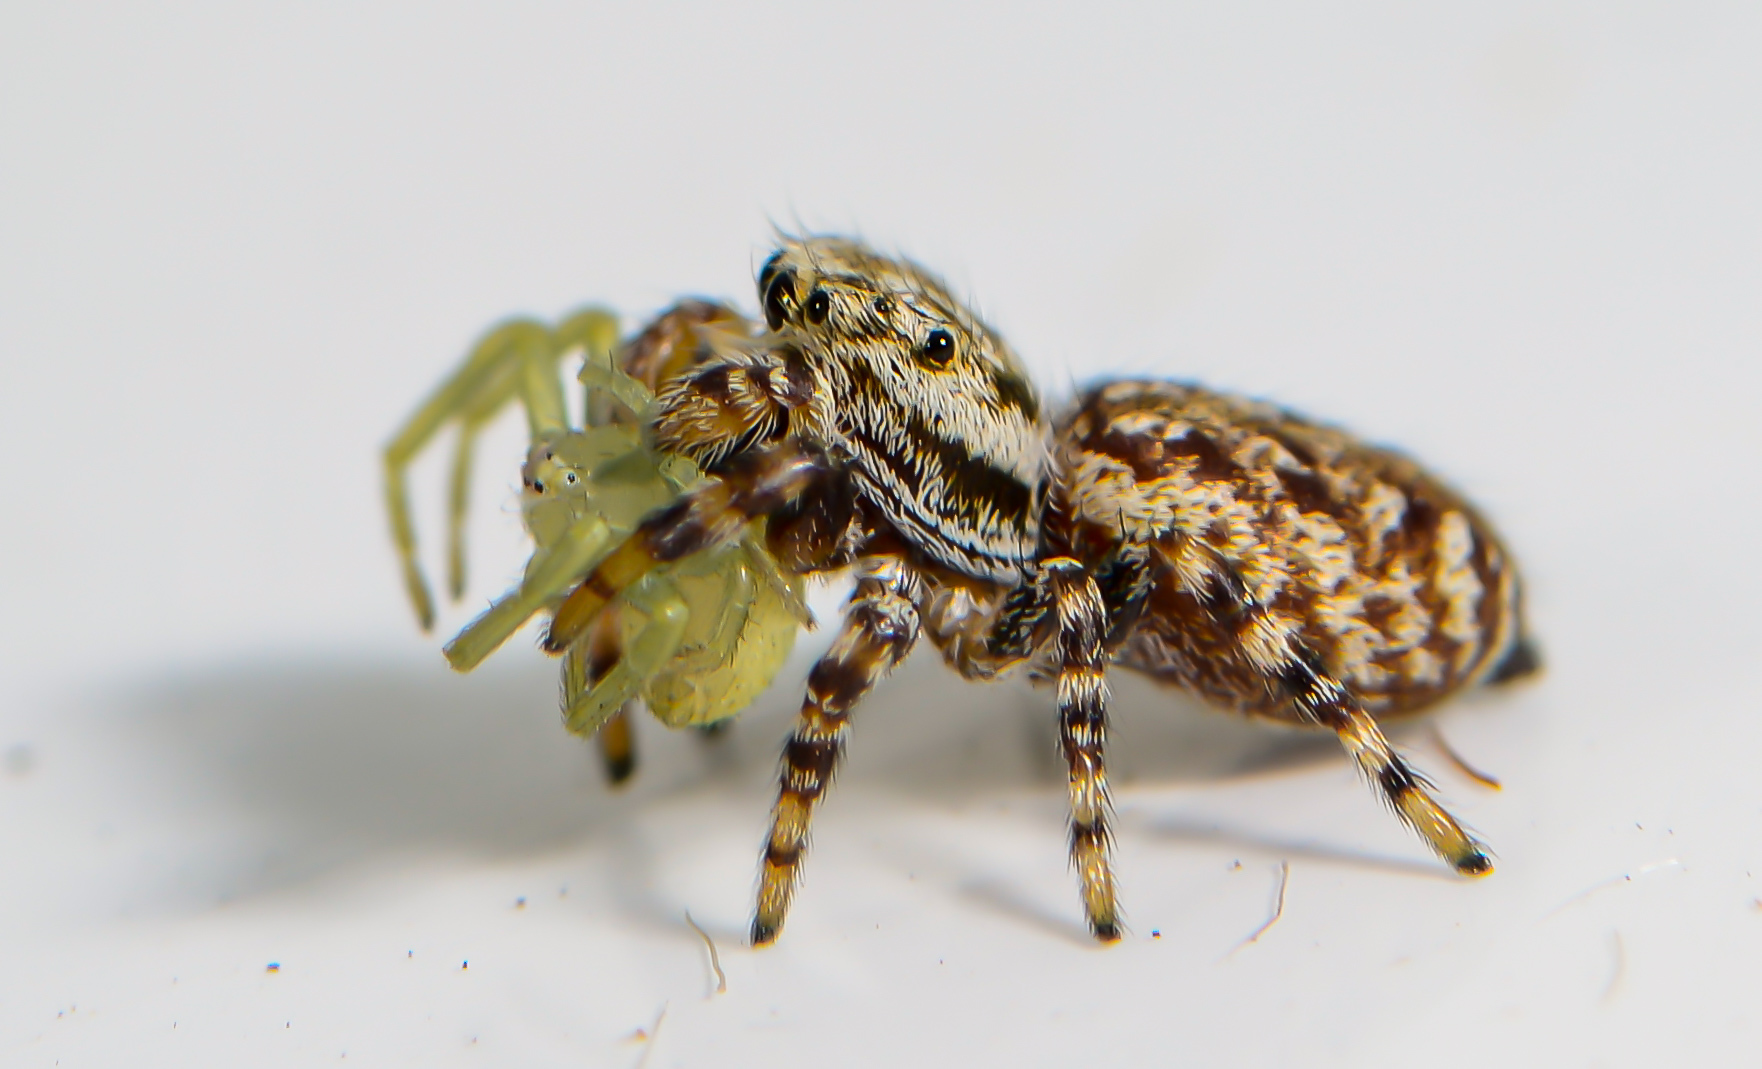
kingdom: Animalia
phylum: Arthropoda
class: Arachnida
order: Araneae
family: Salticidae
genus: Pelegrina
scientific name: Pelegrina galathea
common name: Jumping spiders
